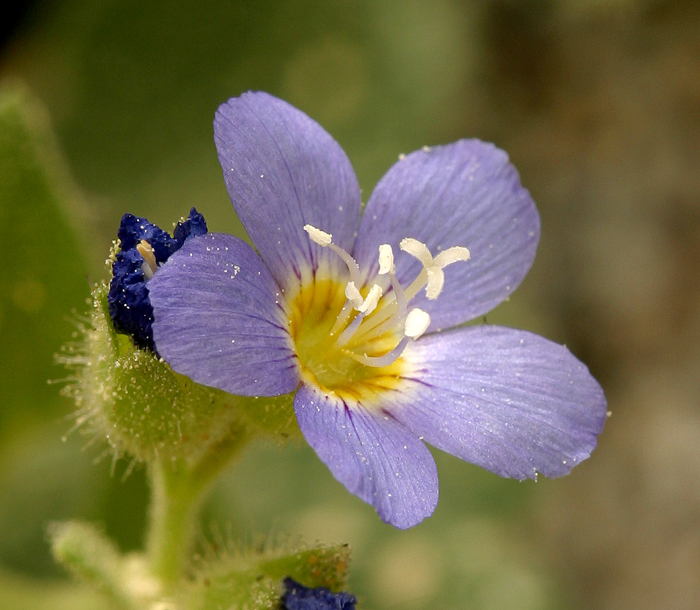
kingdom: Plantae
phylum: Tracheophyta
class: Magnoliopsida
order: Ericales
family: Polemoniaceae
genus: Polemonium
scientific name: Polemonium californicum
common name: California jacob's ladder
